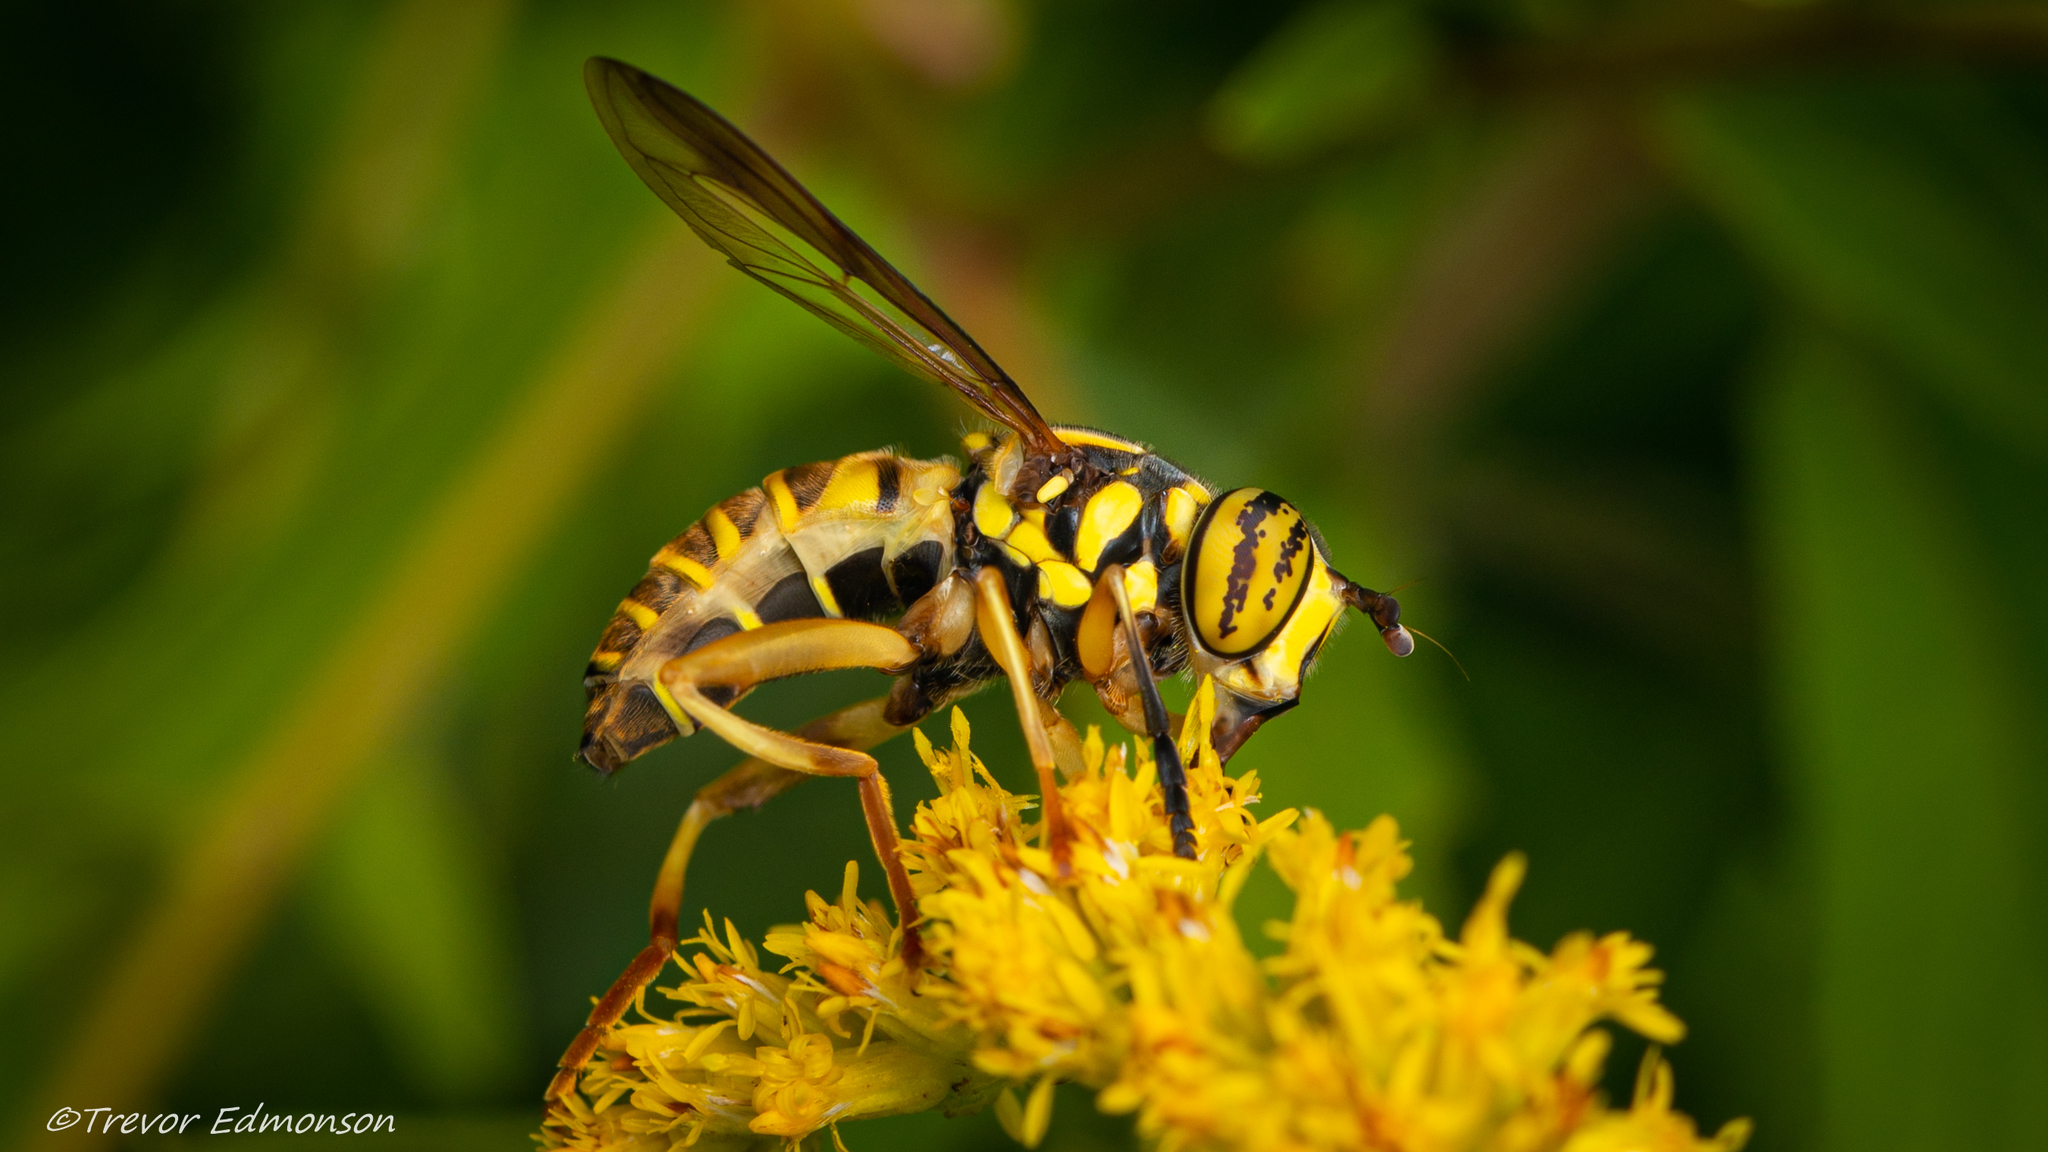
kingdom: Animalia
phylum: Arthropoda
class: Insecta
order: Diptera
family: Syrphidae
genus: Spilomyia
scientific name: Spilomyia longicornis
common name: Eastern hornet fly
